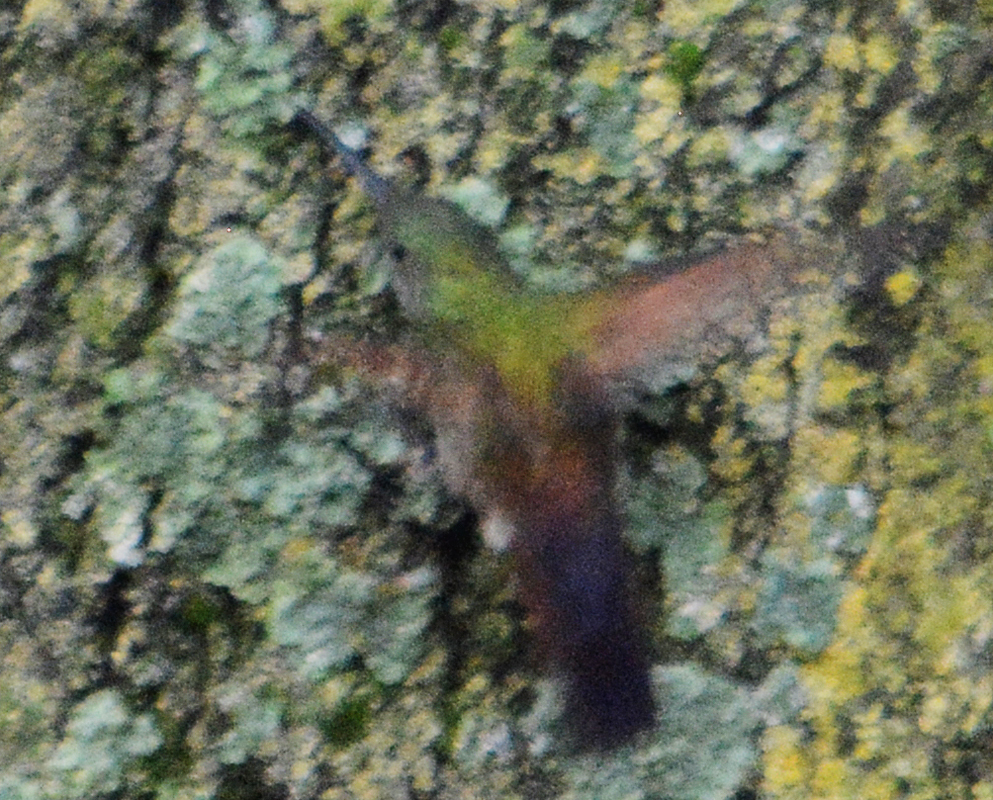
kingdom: Animalia
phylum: Chordata
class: Aves
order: Apodiformes
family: Trochilidae
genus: Saucerottia
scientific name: Saucerottia beryllina
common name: Berylline hummingbird
